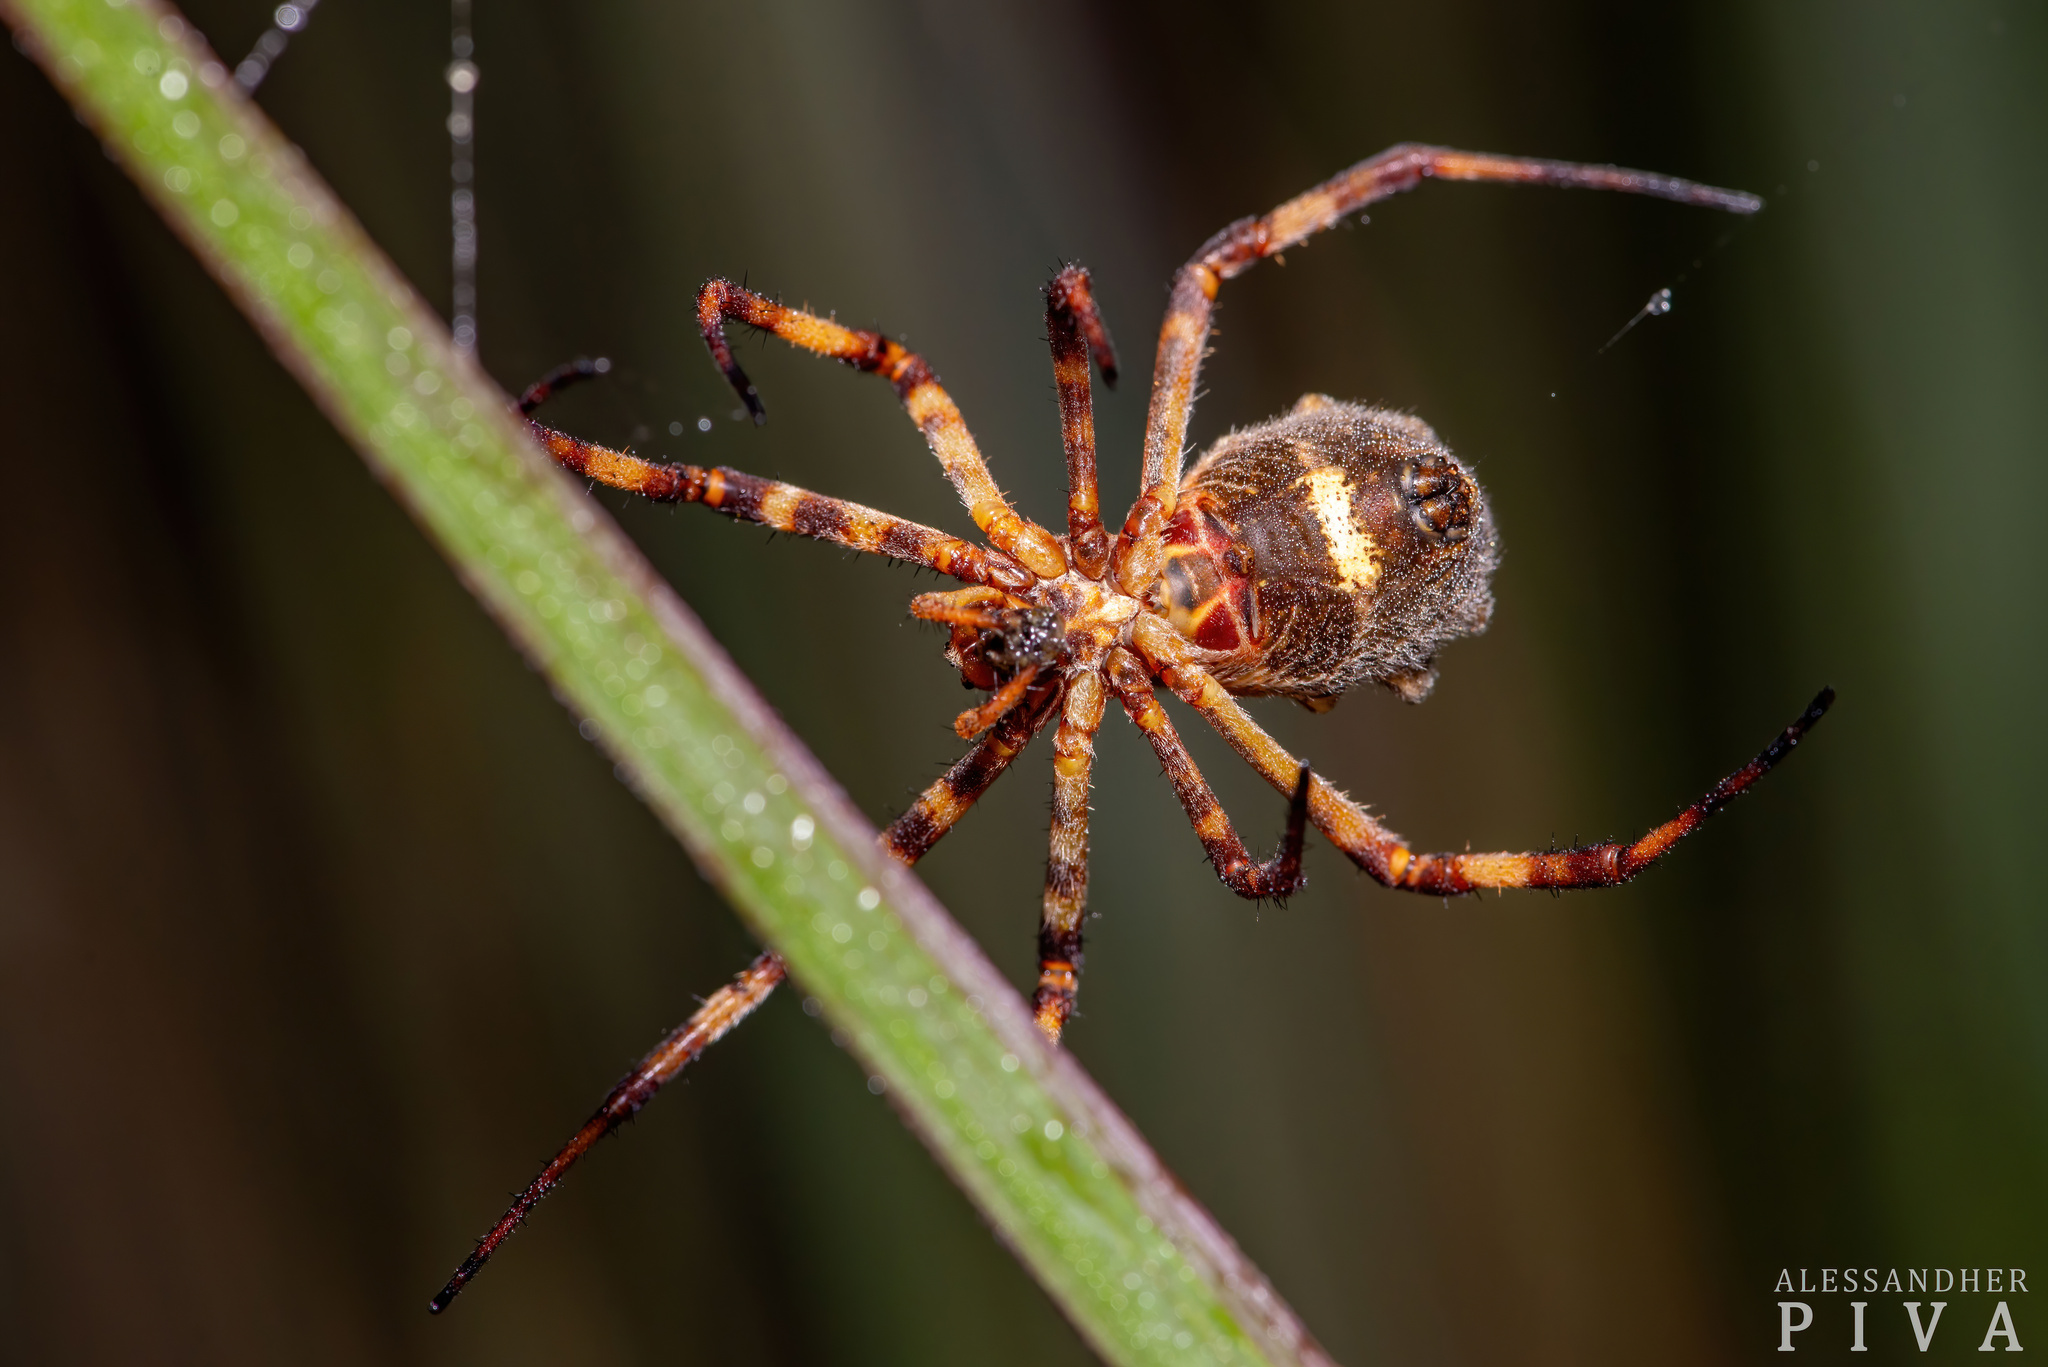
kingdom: Animalia
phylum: Arthropoda
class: Arachnida
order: Araneae
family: Araneidae
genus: Argiope
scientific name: Argiope argentata
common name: Orb weavers
